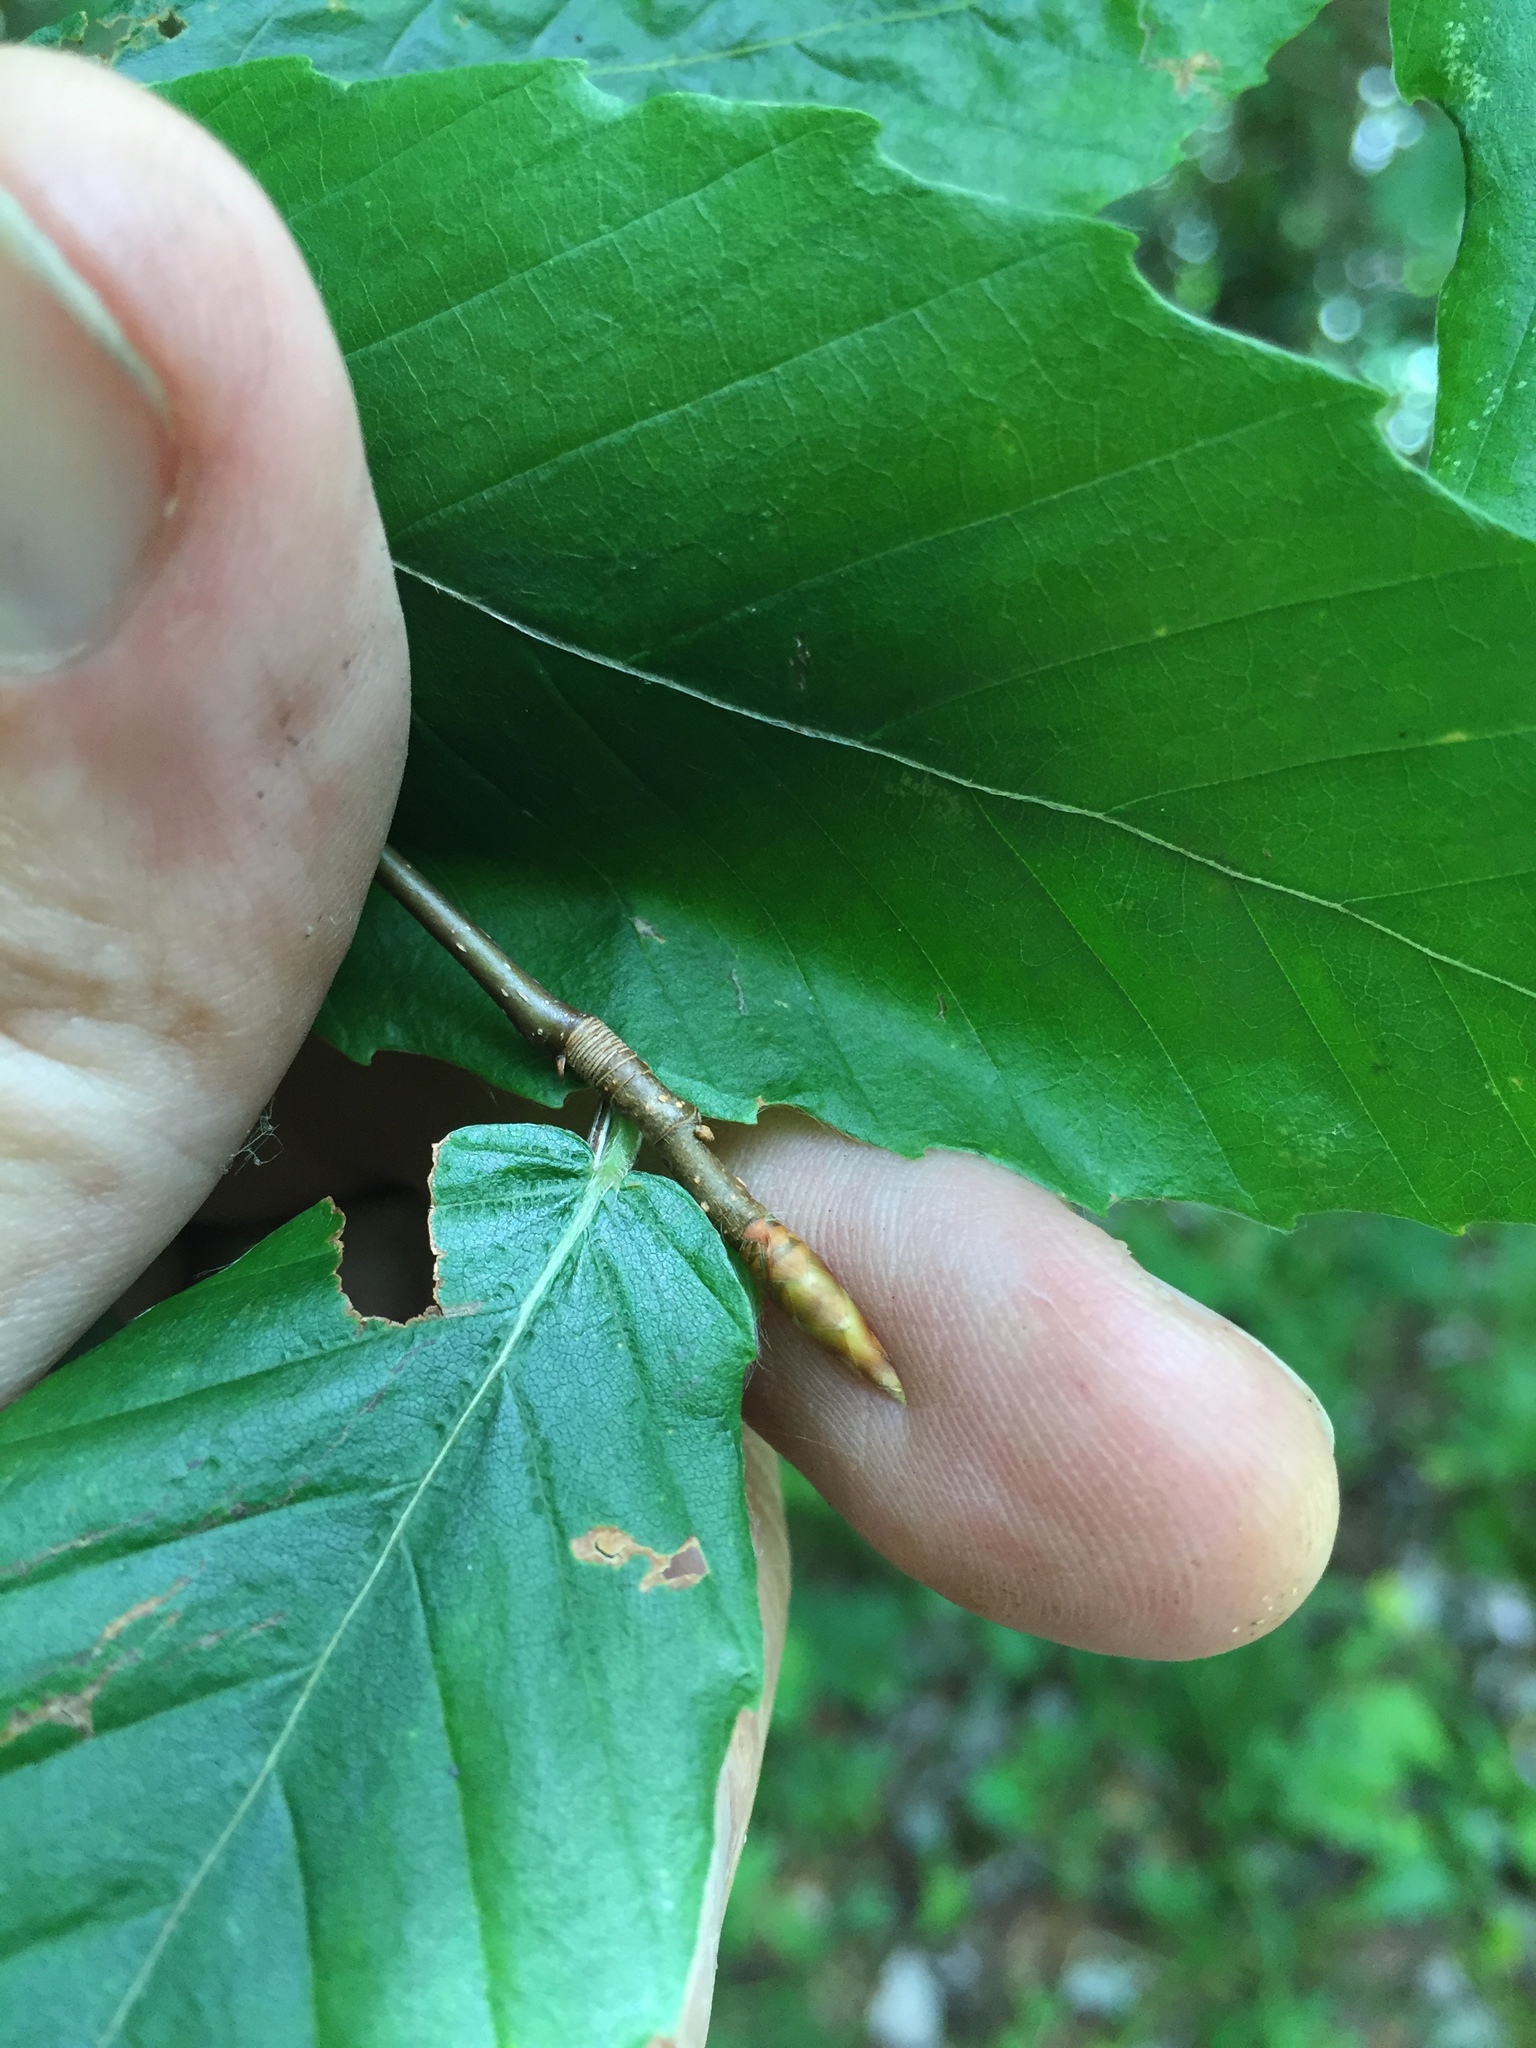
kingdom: Plantae
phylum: Tracheophyta
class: Magnoliopsida
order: Fagales
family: Fagaceae
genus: Fagus
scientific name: Fagus grandifolia
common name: American beech
